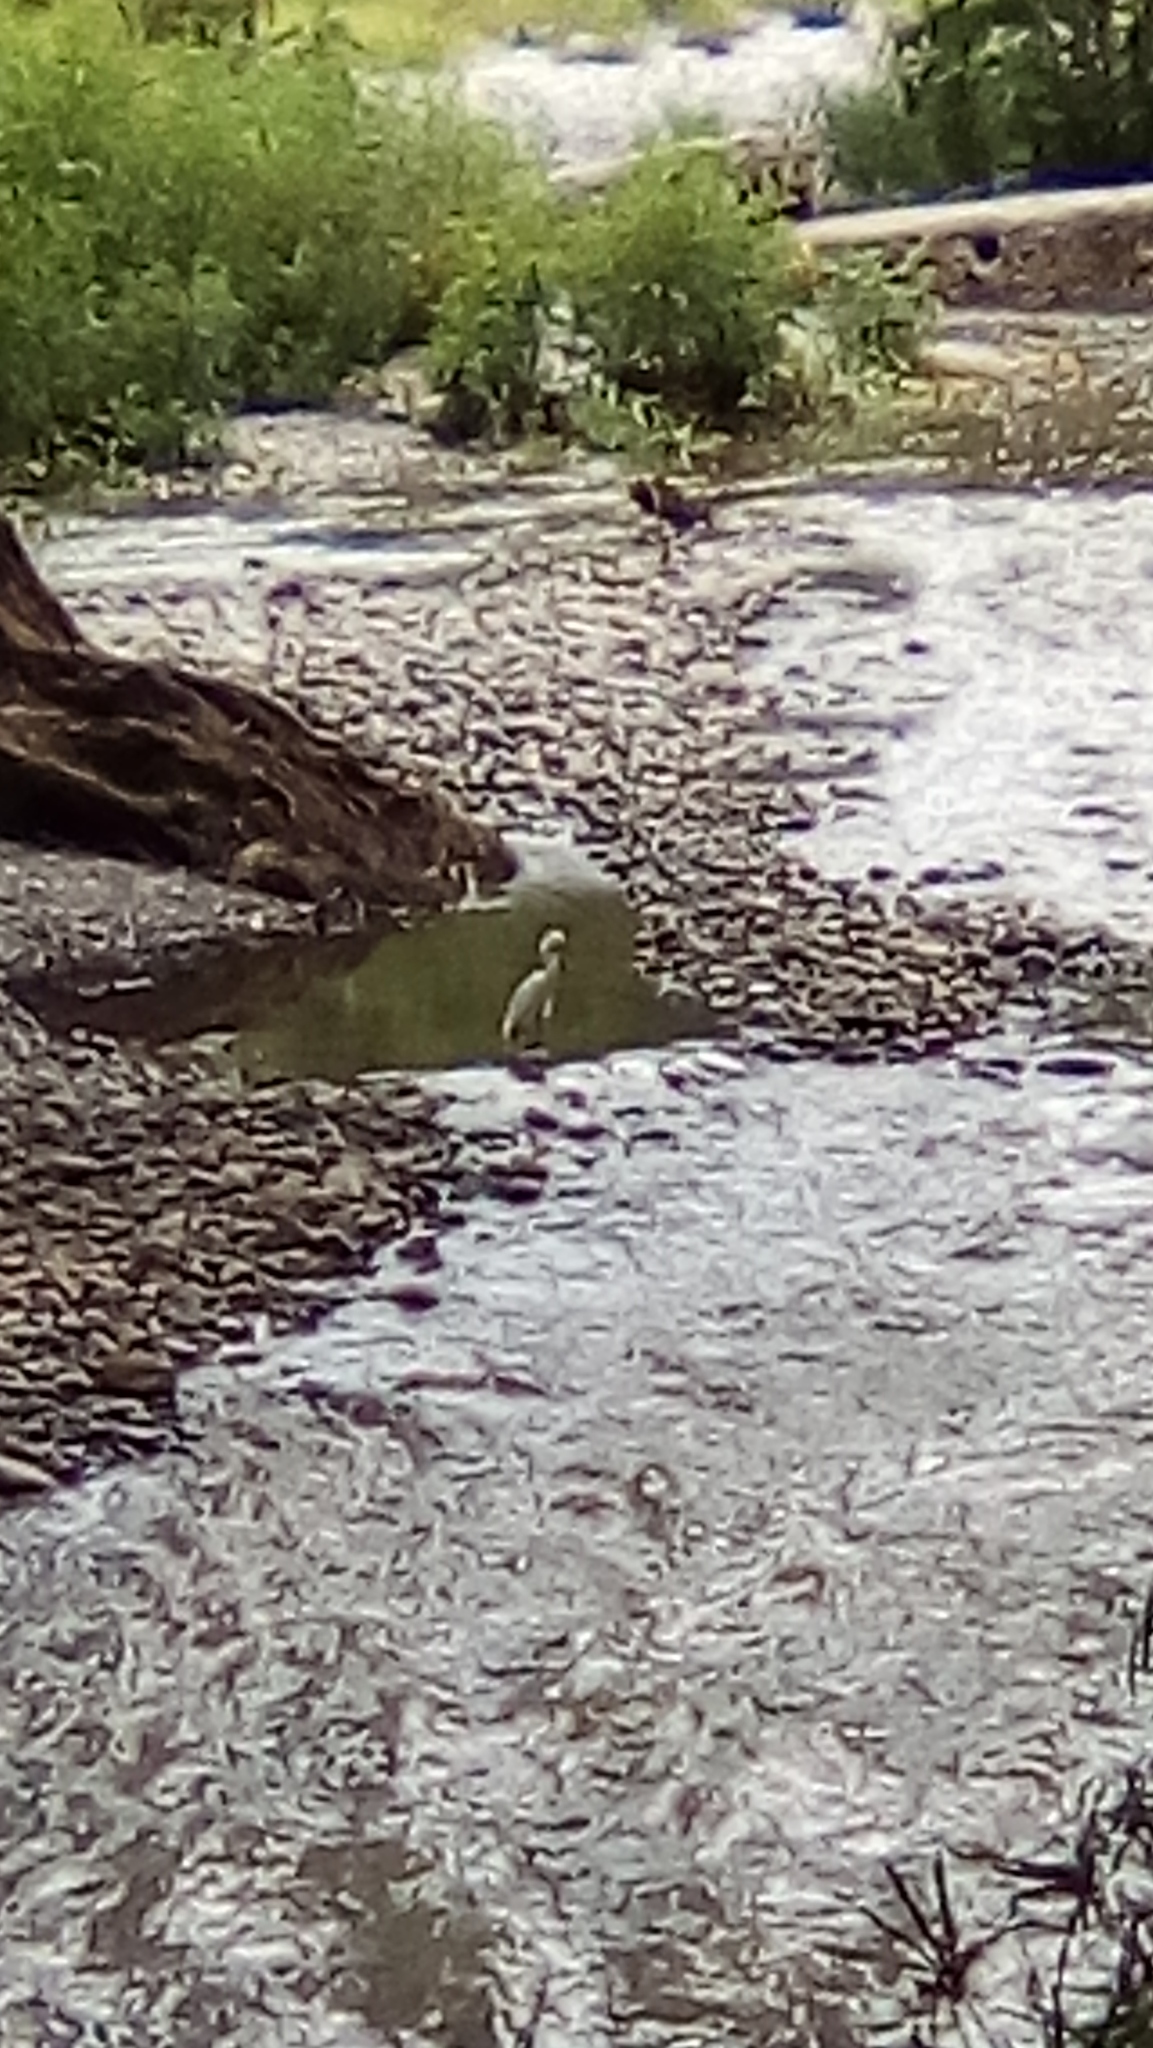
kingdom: Animalia
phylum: Chordata
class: Aves
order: Pelecaniformes
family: Ardeidae
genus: Egretta
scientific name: Egretta thula
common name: Snowy egret
